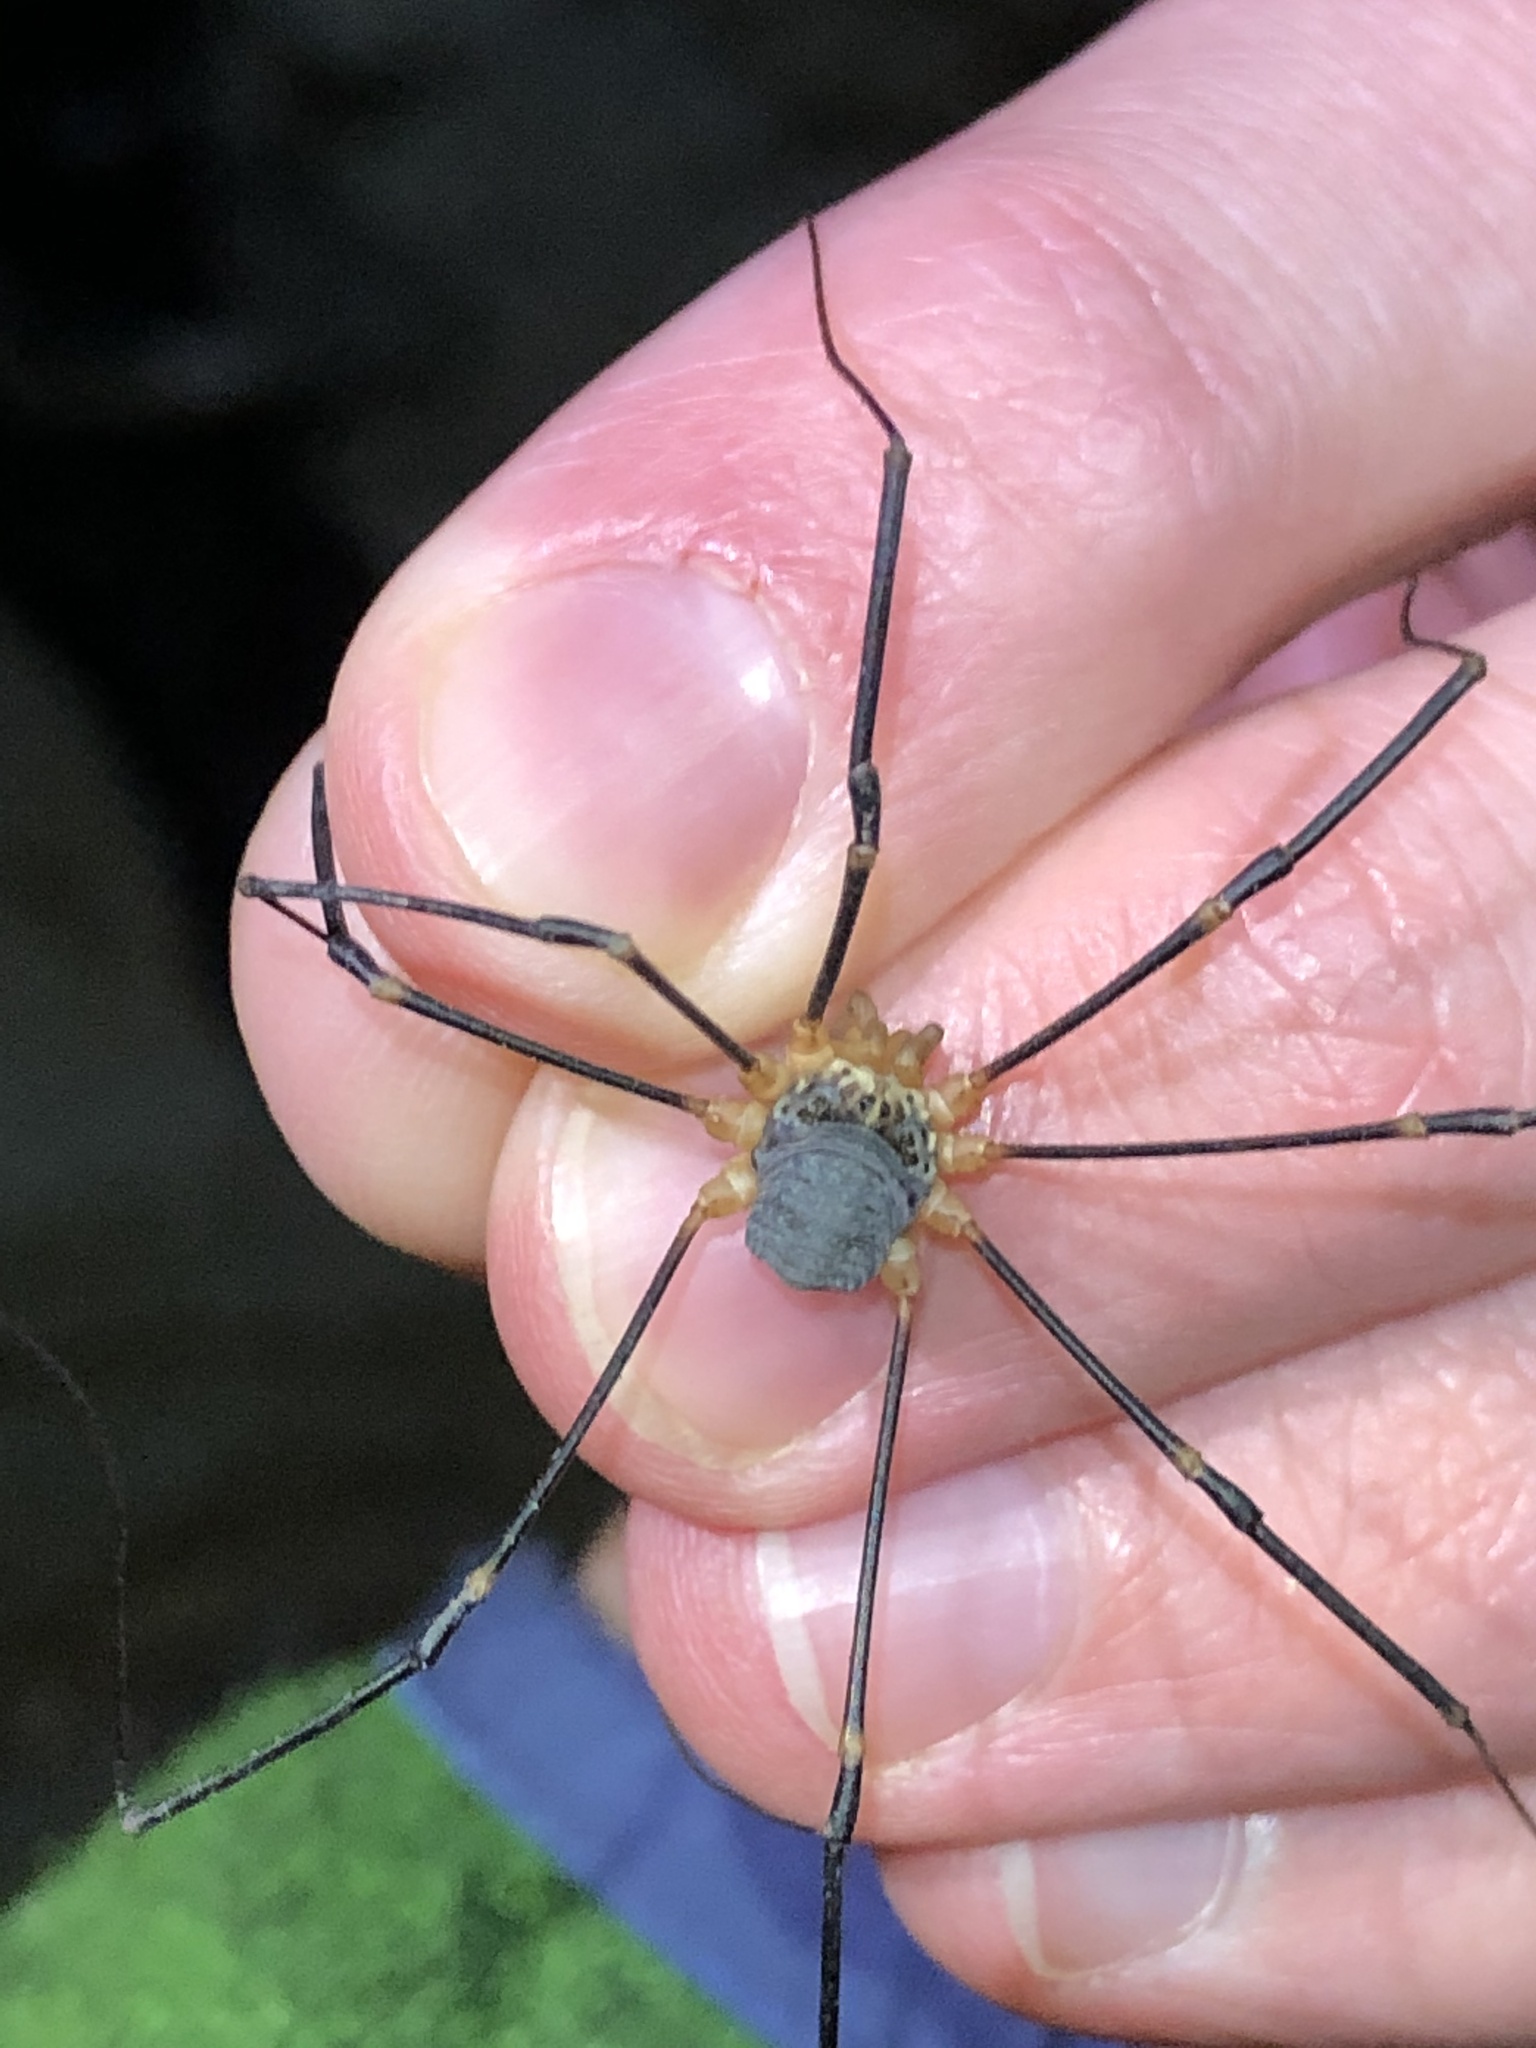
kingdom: Animalia
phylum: Arthropoda
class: Arachnida
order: Opiliones
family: Sclerosomatidae
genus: Gyas
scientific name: Gyas annulatus
